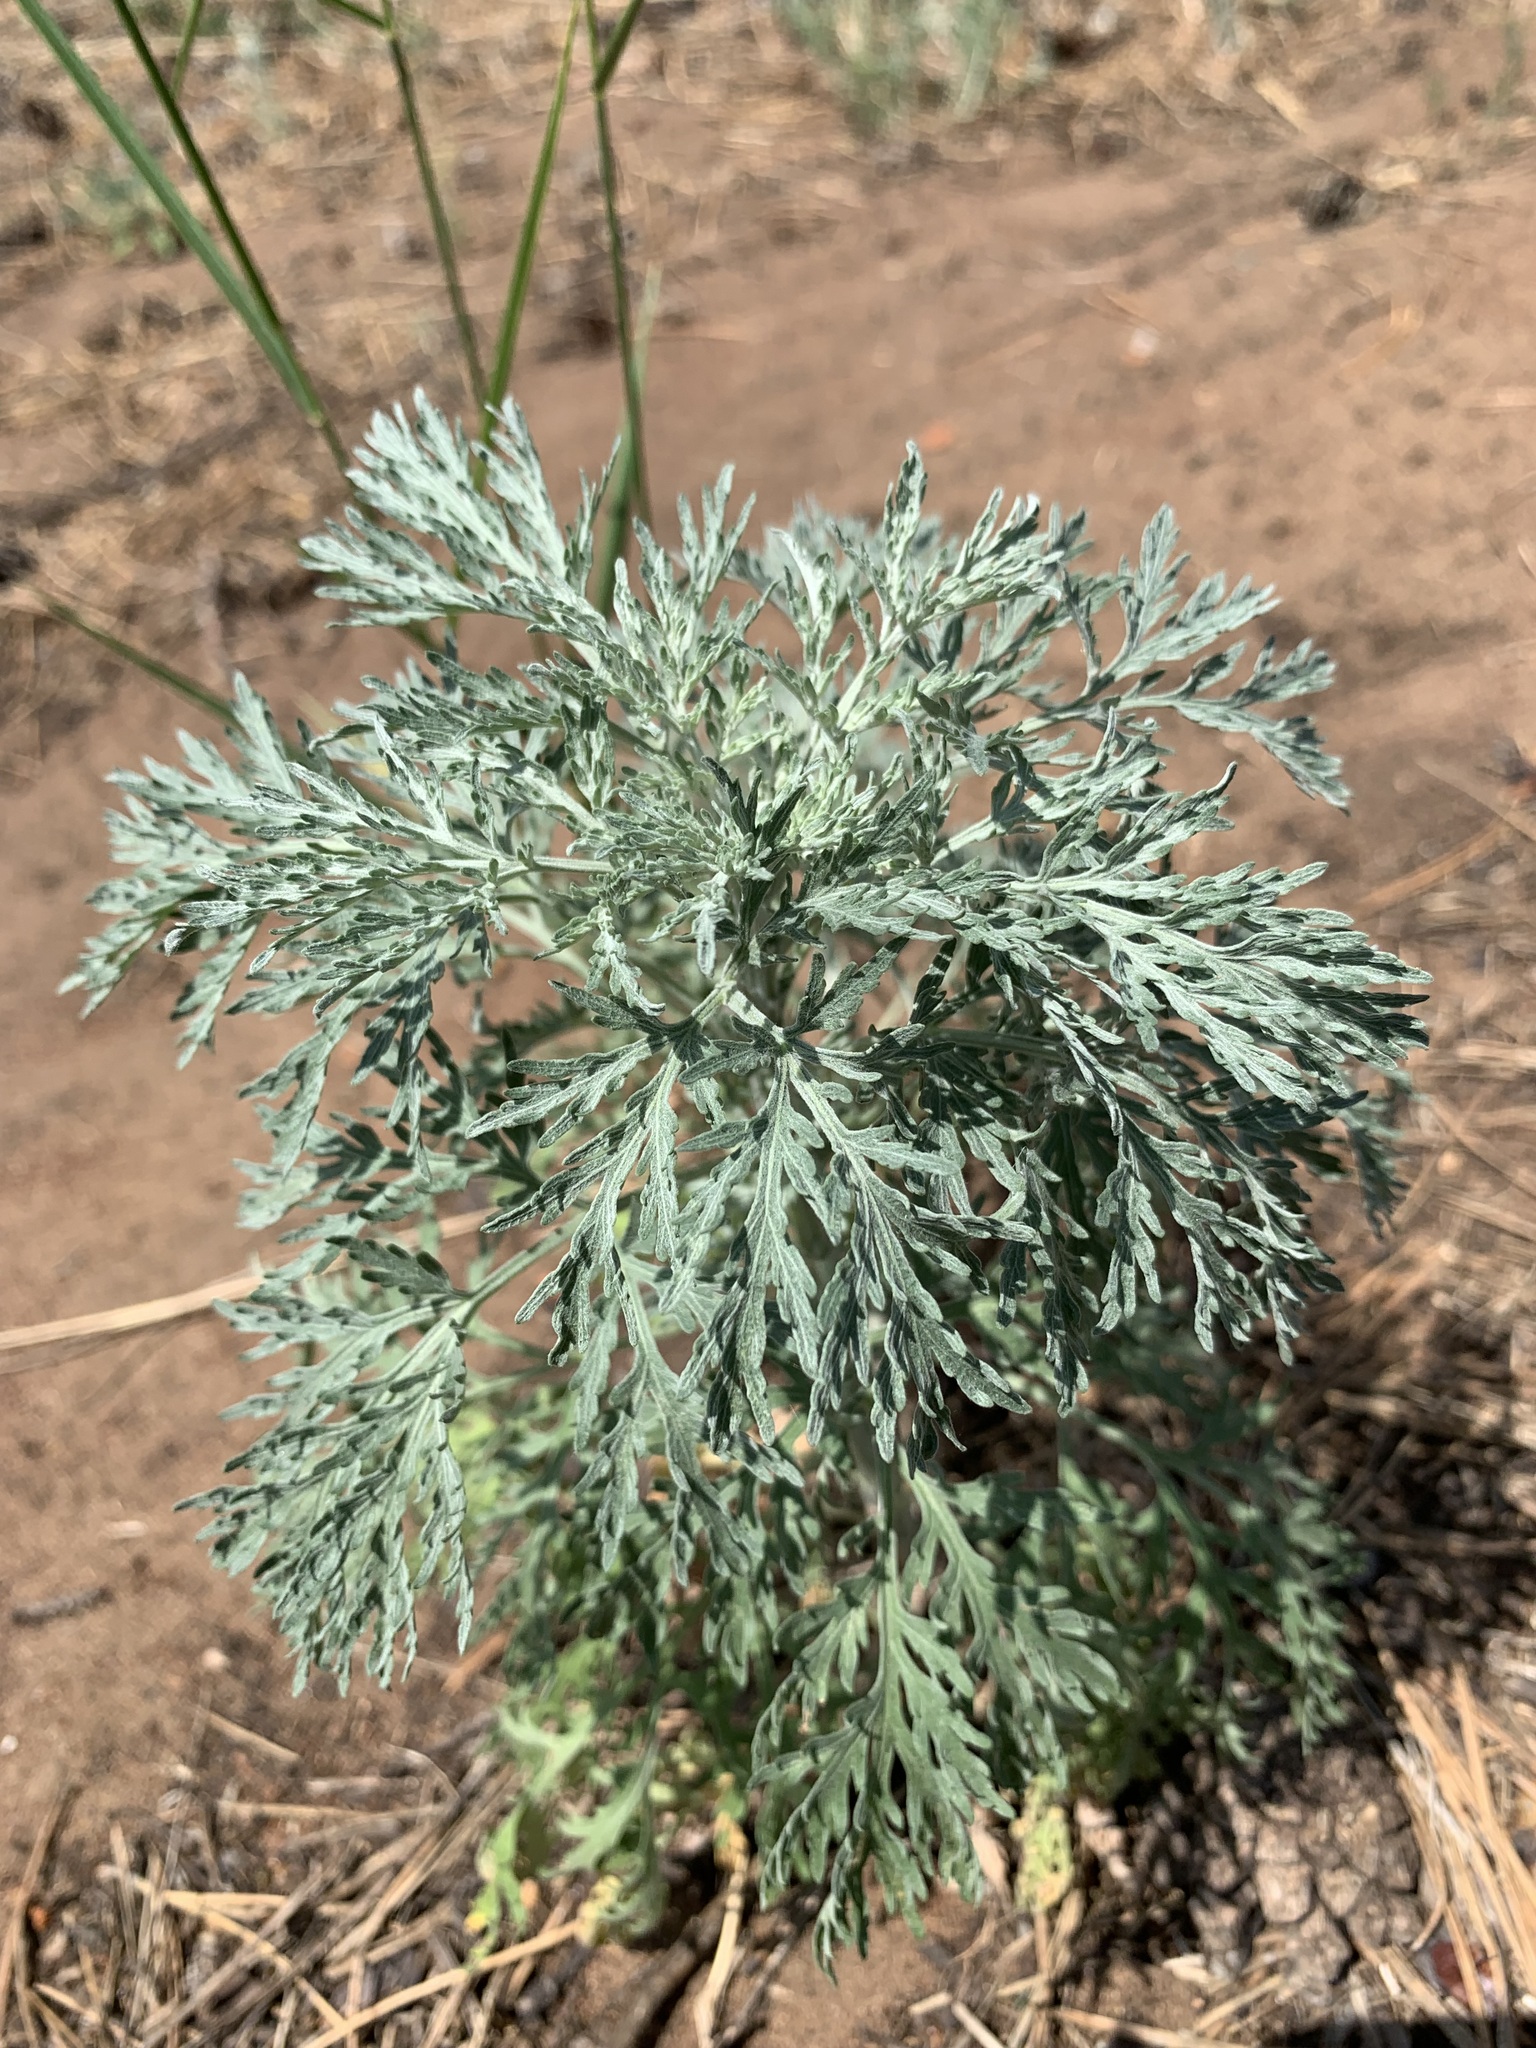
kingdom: Plantae
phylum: Tracheophyta
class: Magnoliopsida
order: Asterales
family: Asteraceae
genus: Artemisia
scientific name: Artemisia sieversiana
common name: Sieversian wormwood
